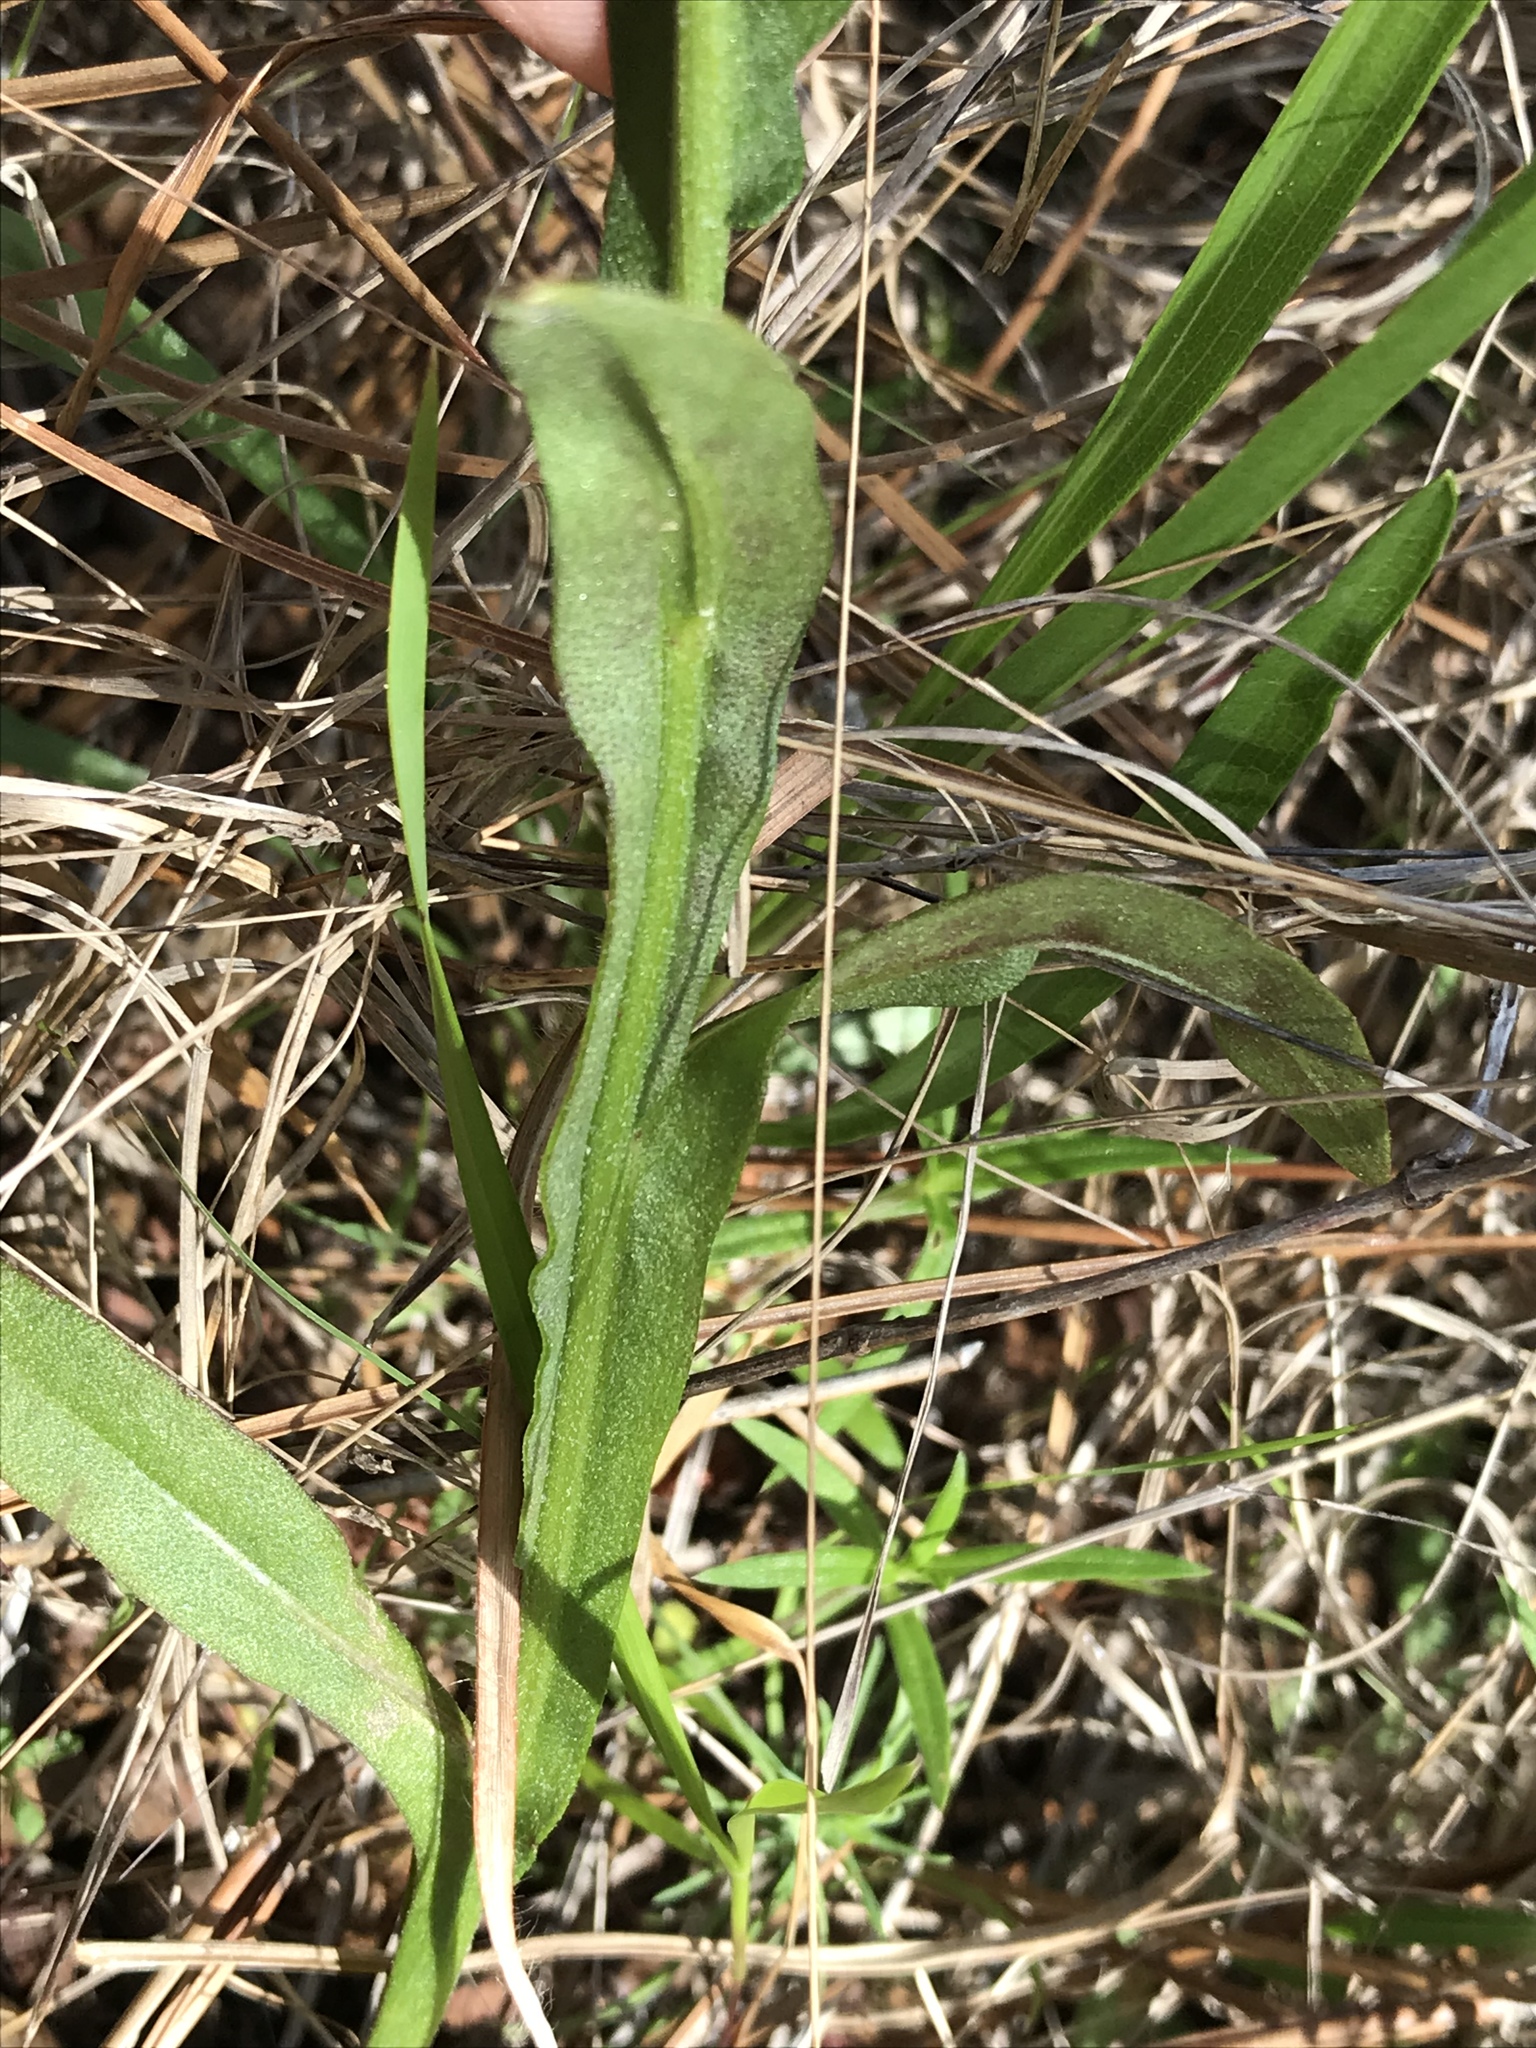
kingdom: Plantae
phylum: Tracheophyta
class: Magnoliopsida
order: Asterales
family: Asteraceae
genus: Helenium
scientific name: Helenium flexuosum
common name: Naked-flowered sneezeweed
